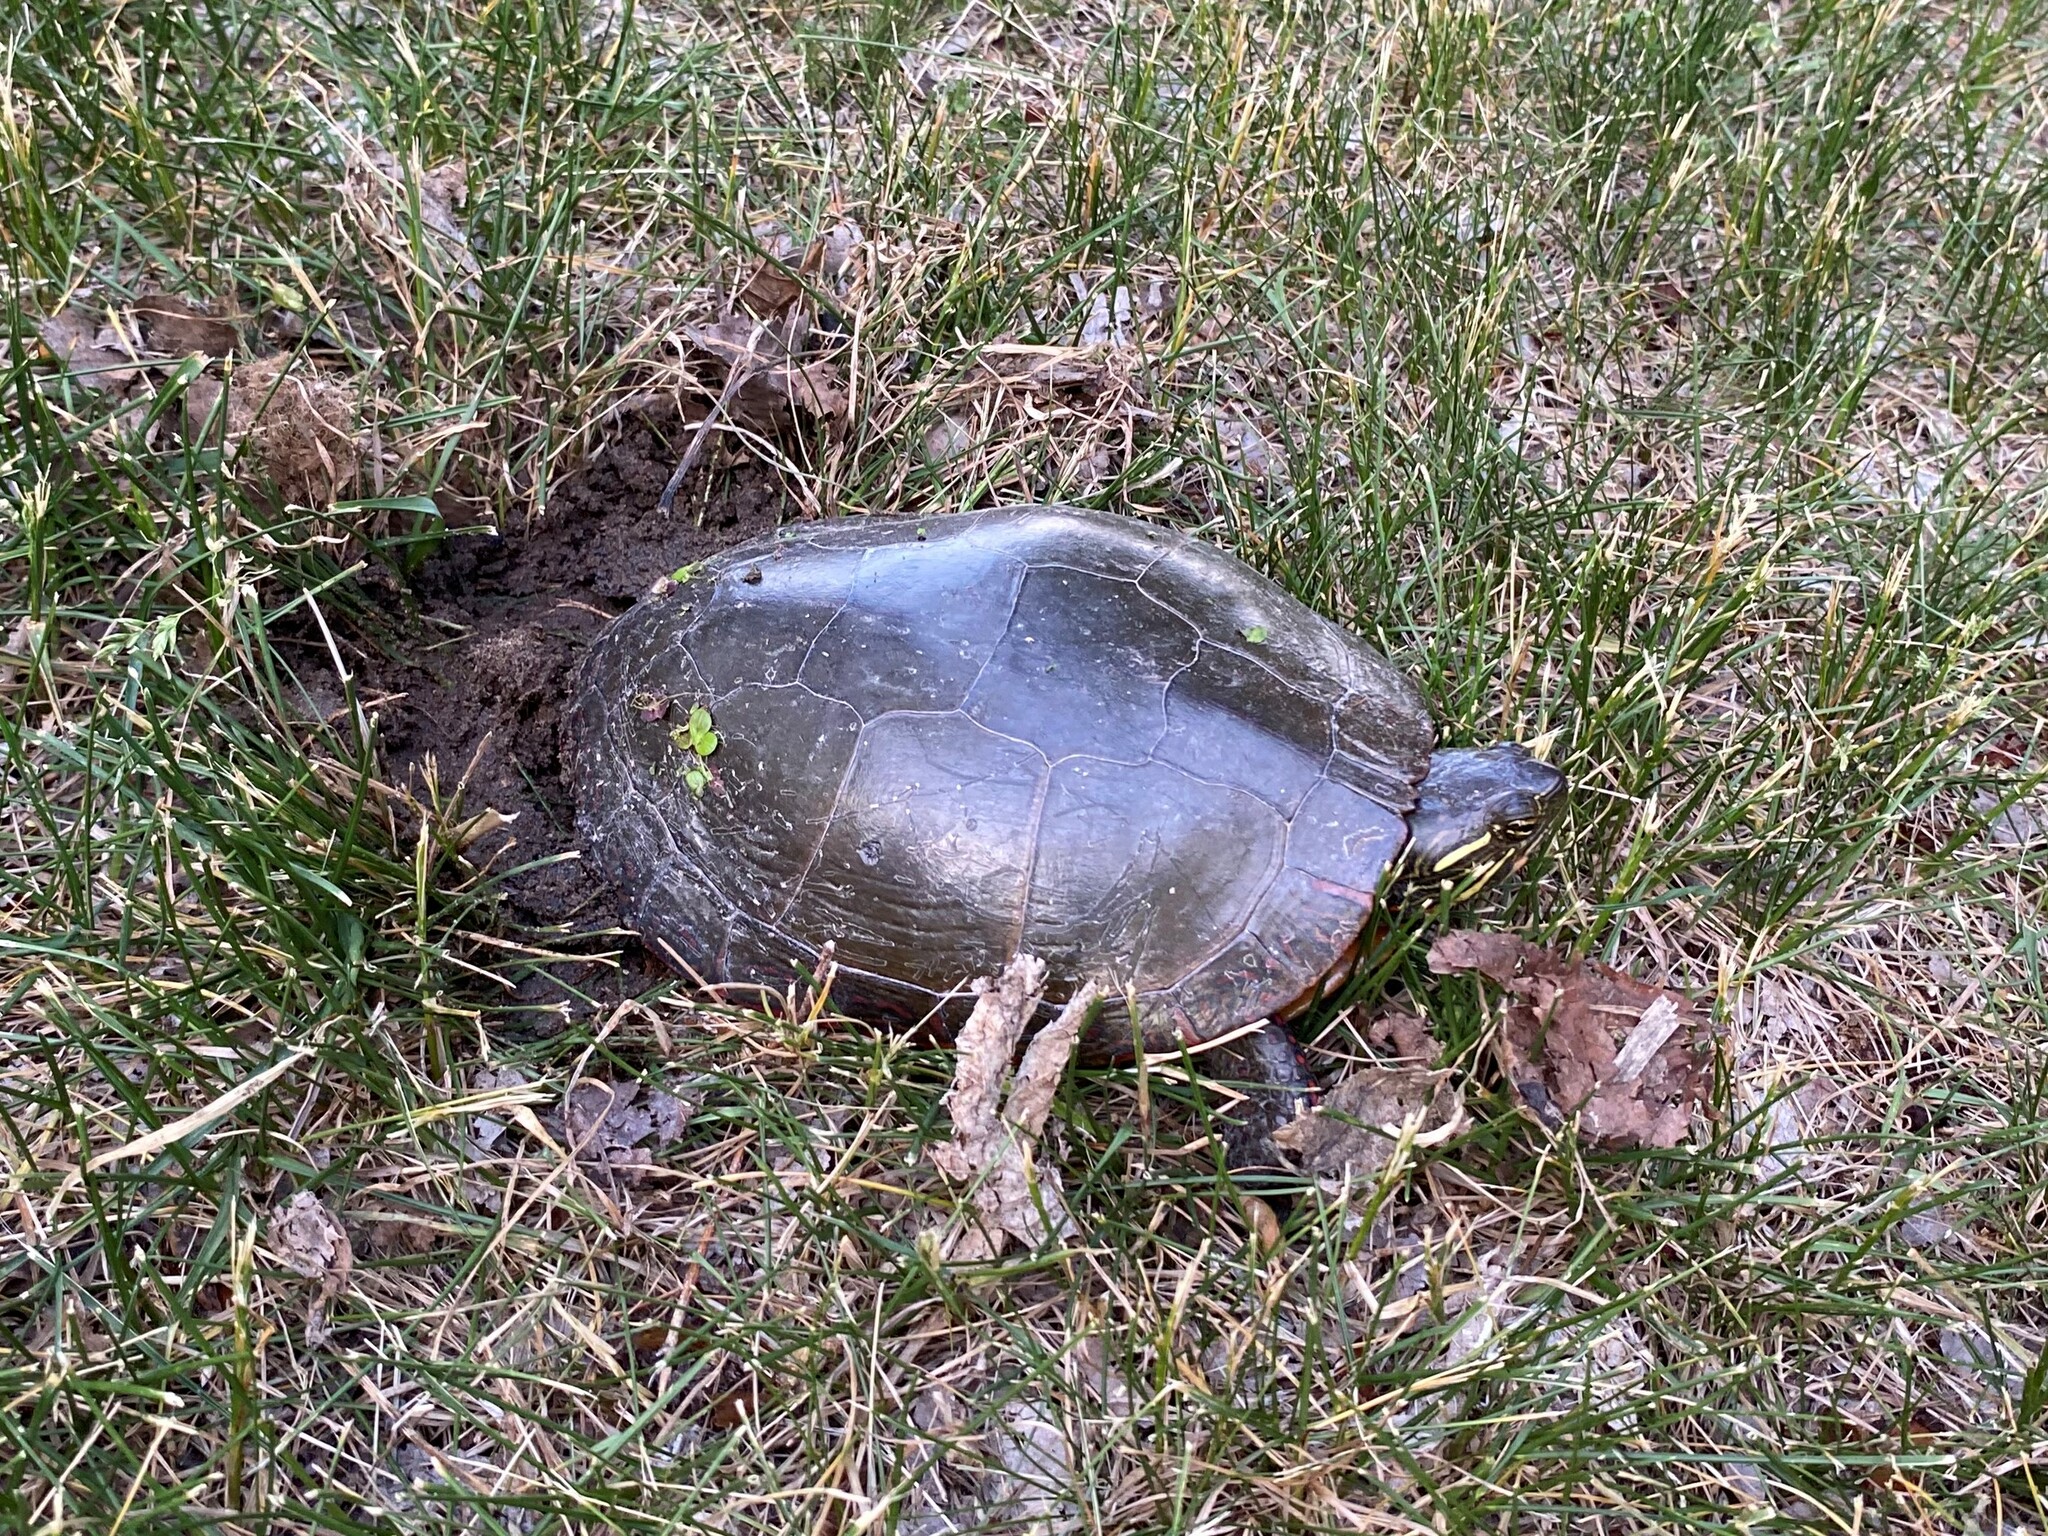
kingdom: Animalia
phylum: Chordata
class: Testudines
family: Emydidae
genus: Chrysemys
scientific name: Chrysemys picta
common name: Painted turtle
